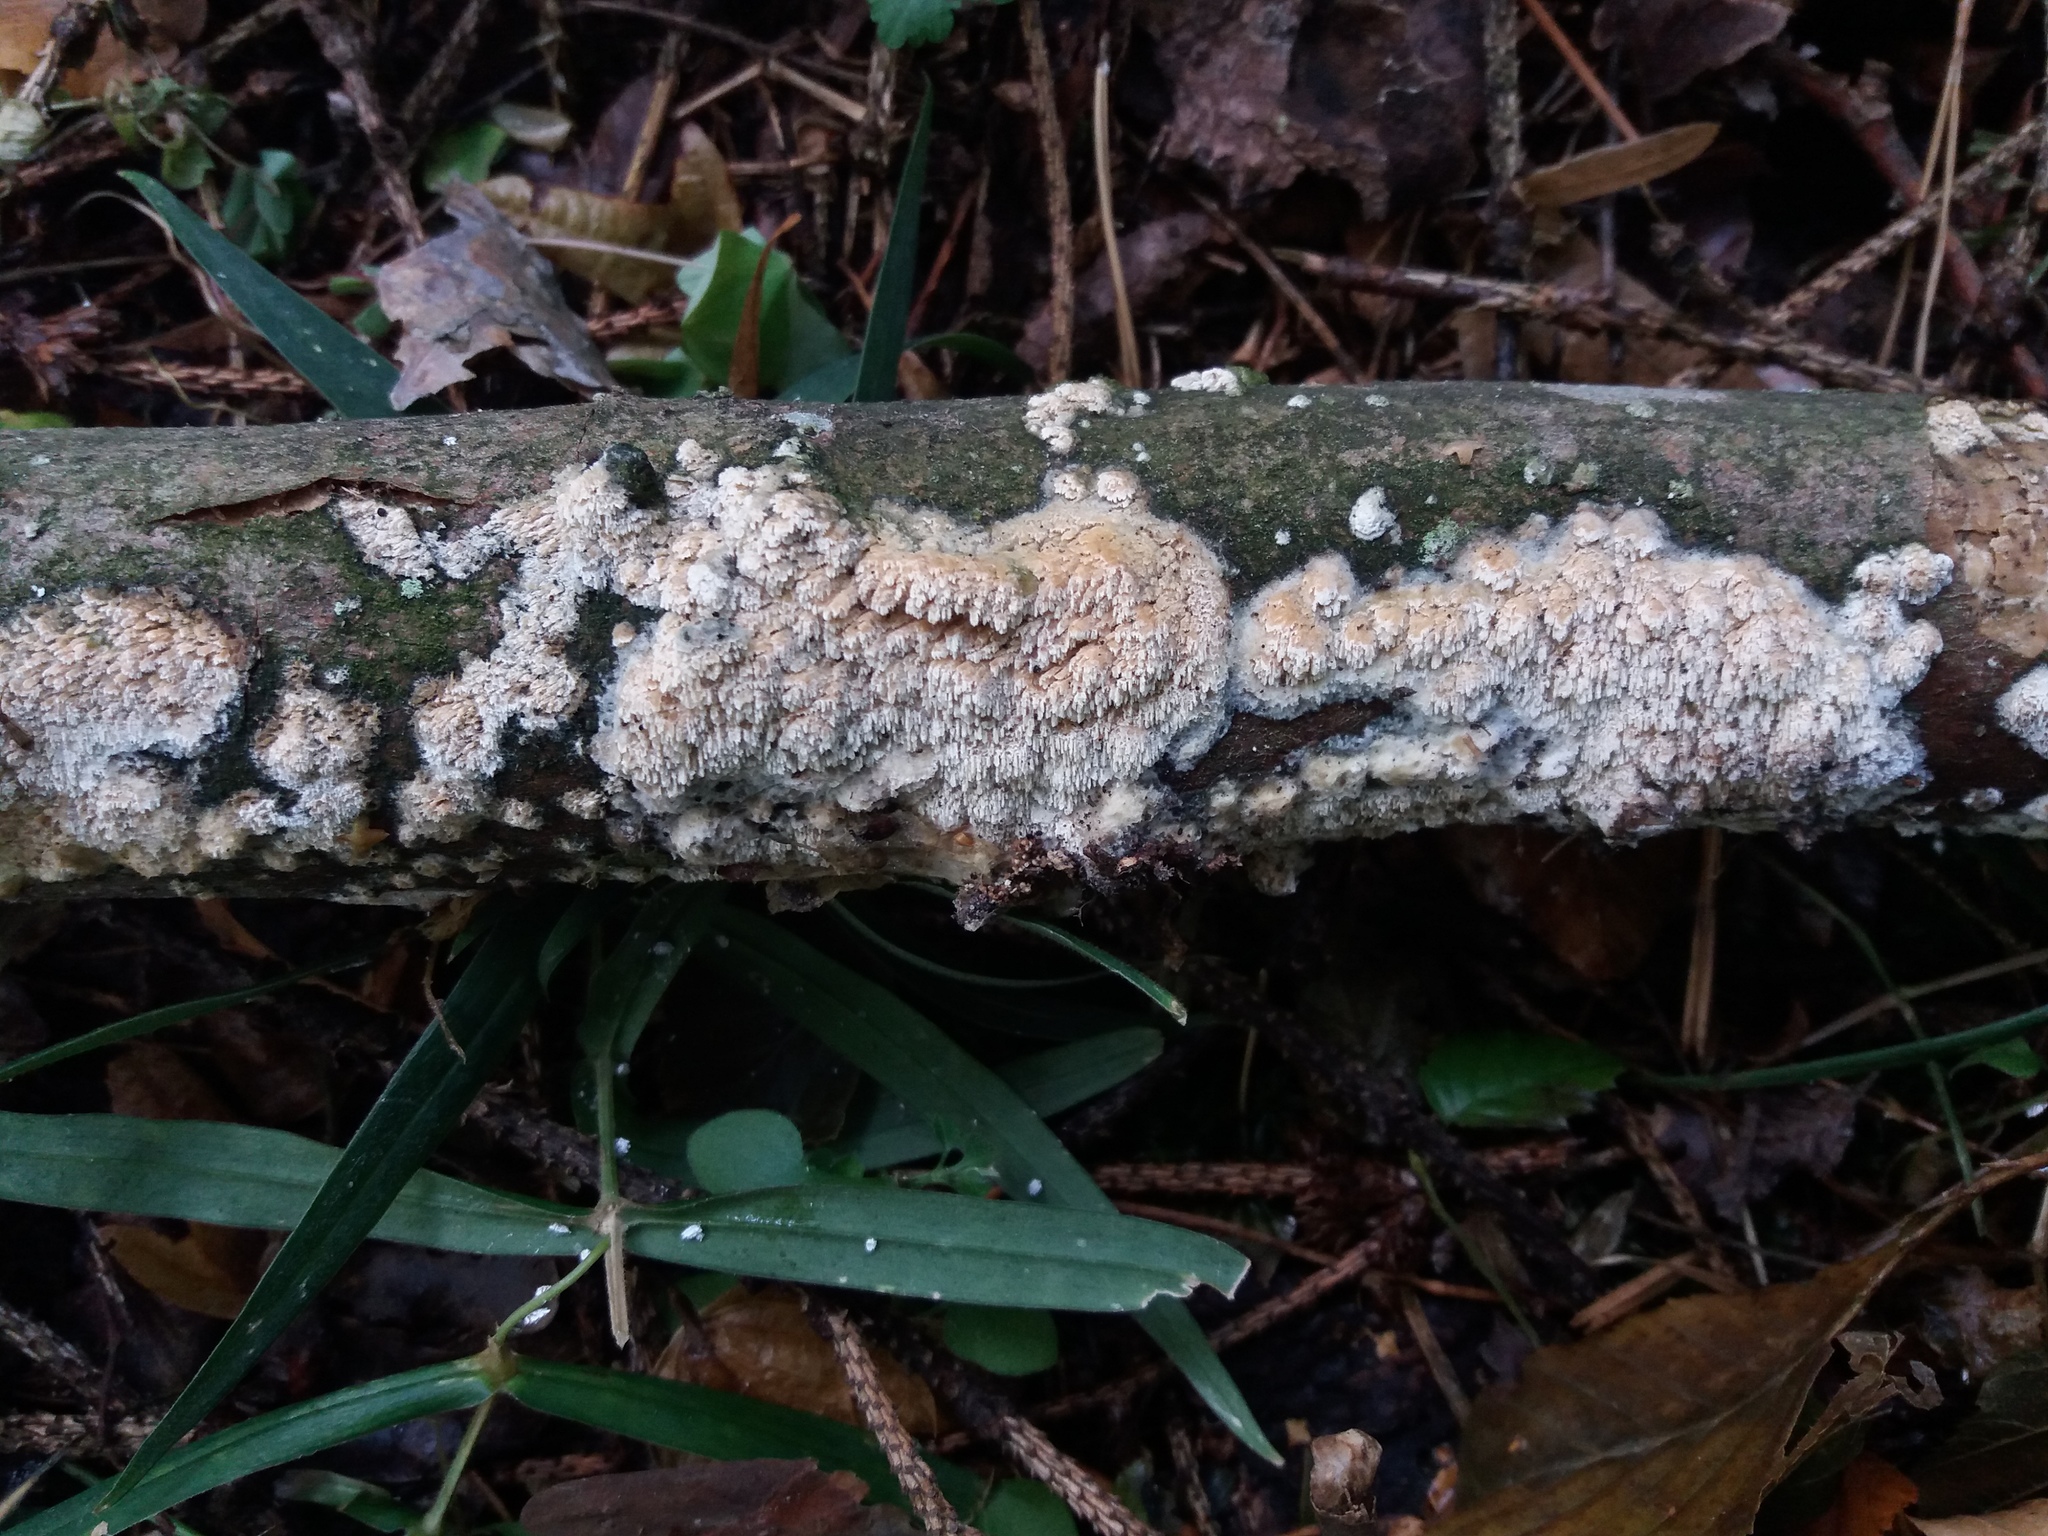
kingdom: Fungi
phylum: Basidiomycota
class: Agaricomycetes
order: Hymenochaetales
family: Schizoporaceae
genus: Xylodon
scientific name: Xylodon radula
